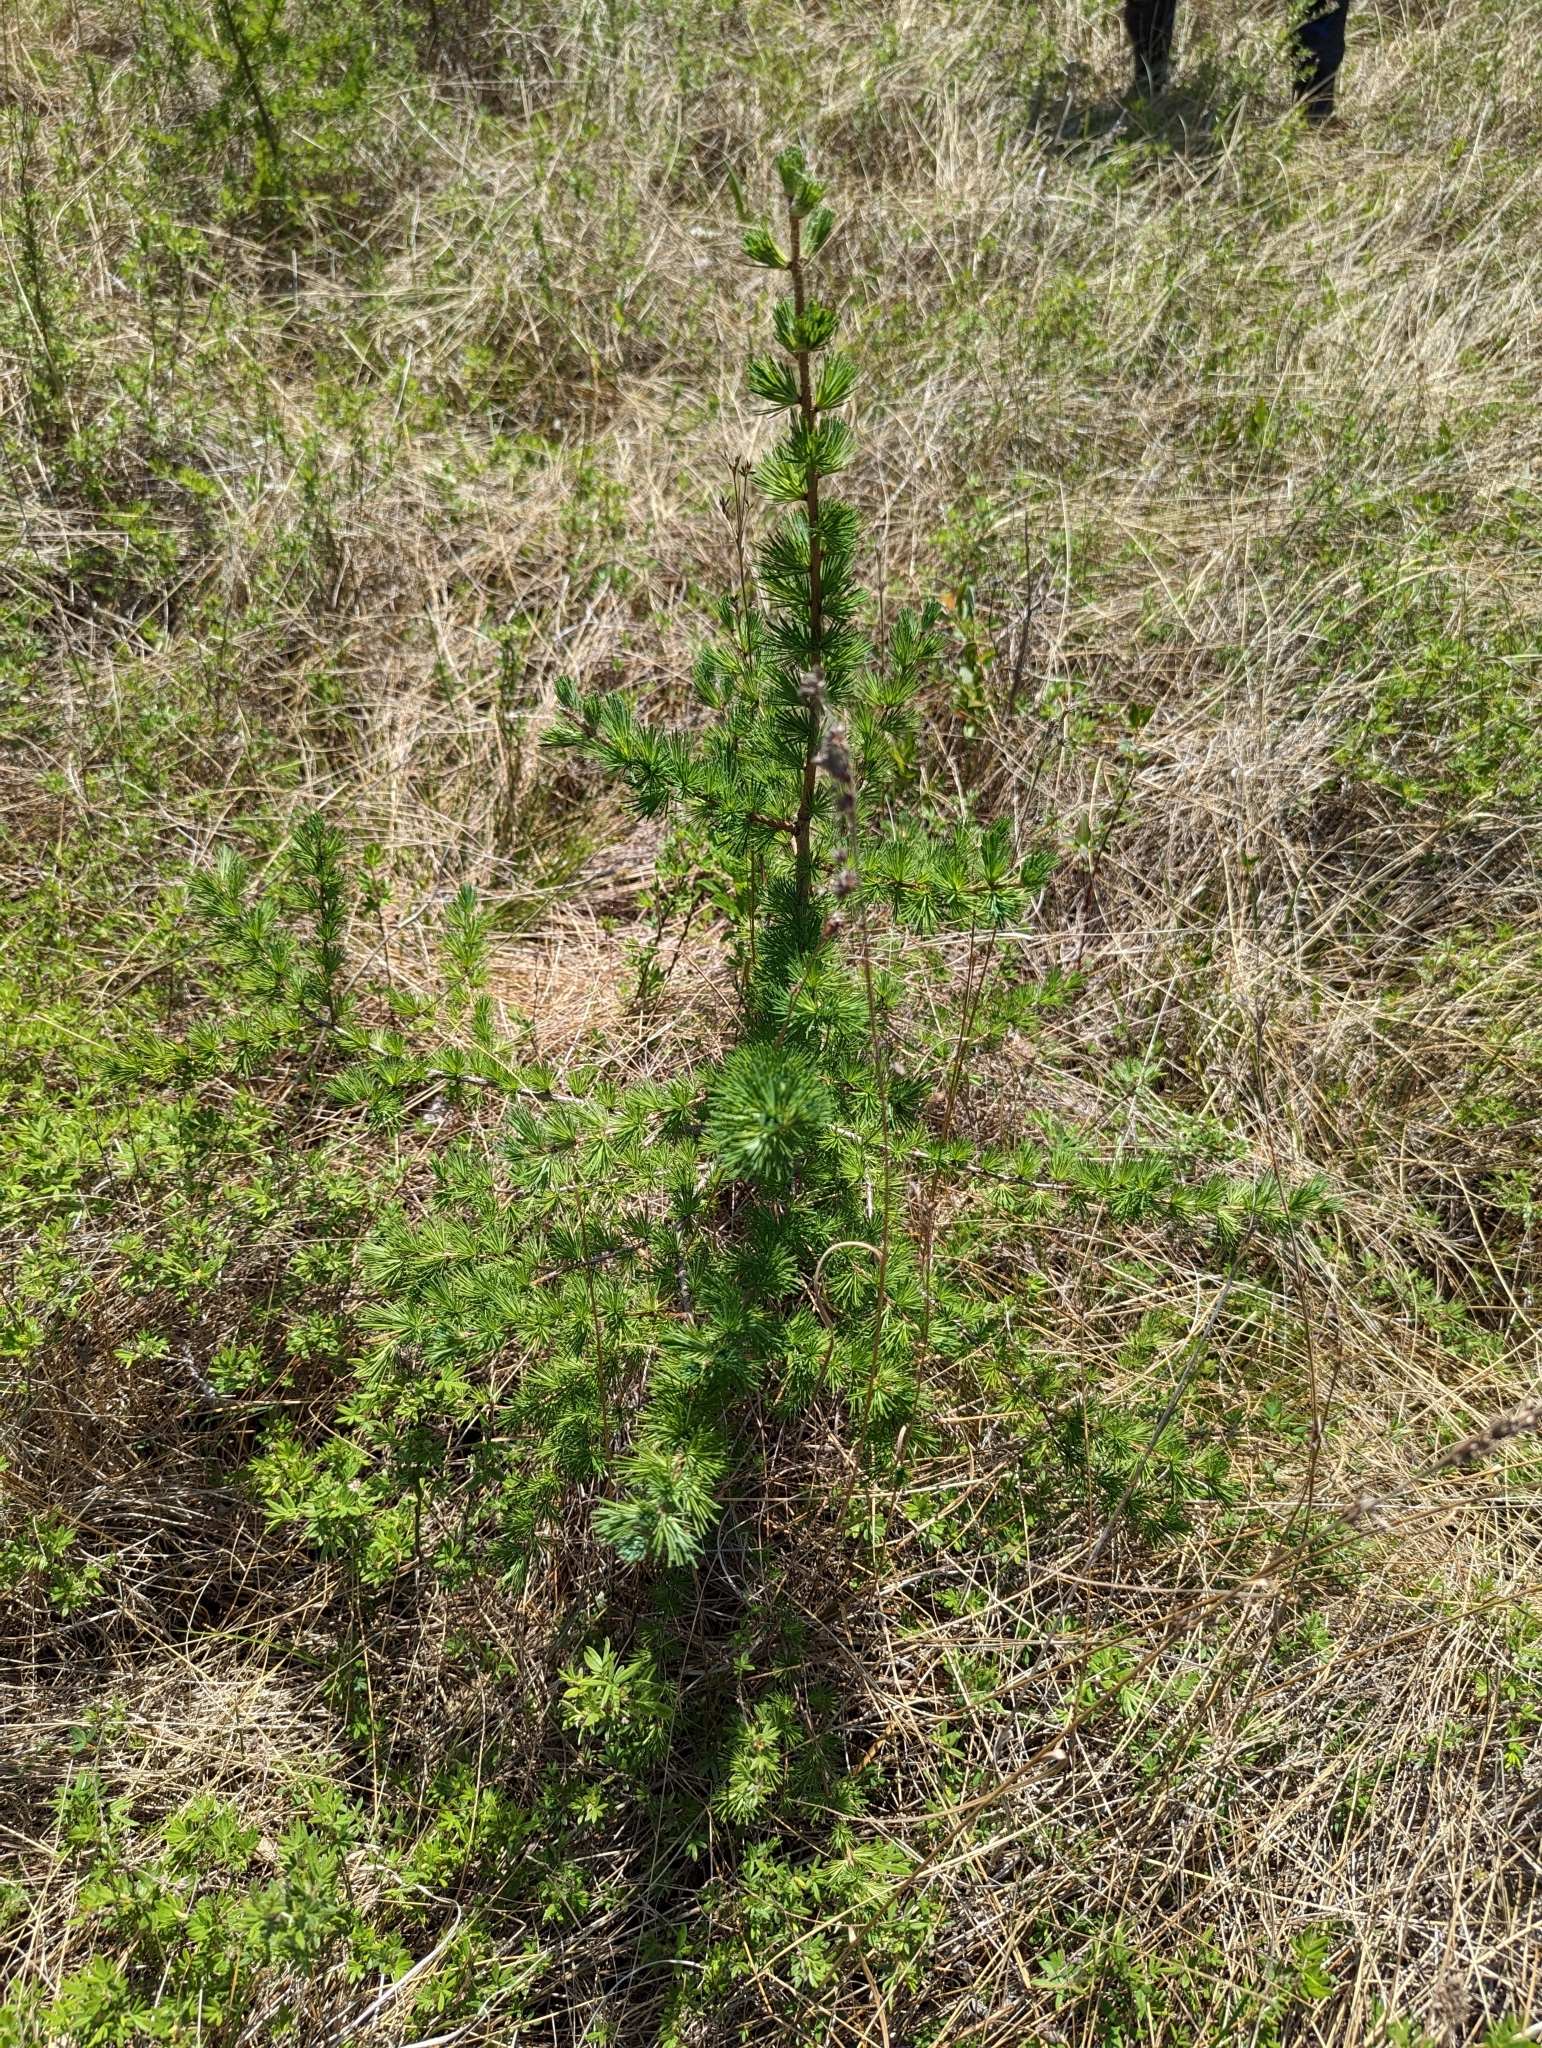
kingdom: Plantae
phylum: Tracheophyta
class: Pinopsida
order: Pinales
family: Pinaceae
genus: Larix
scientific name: Larix laricina
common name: American larch
